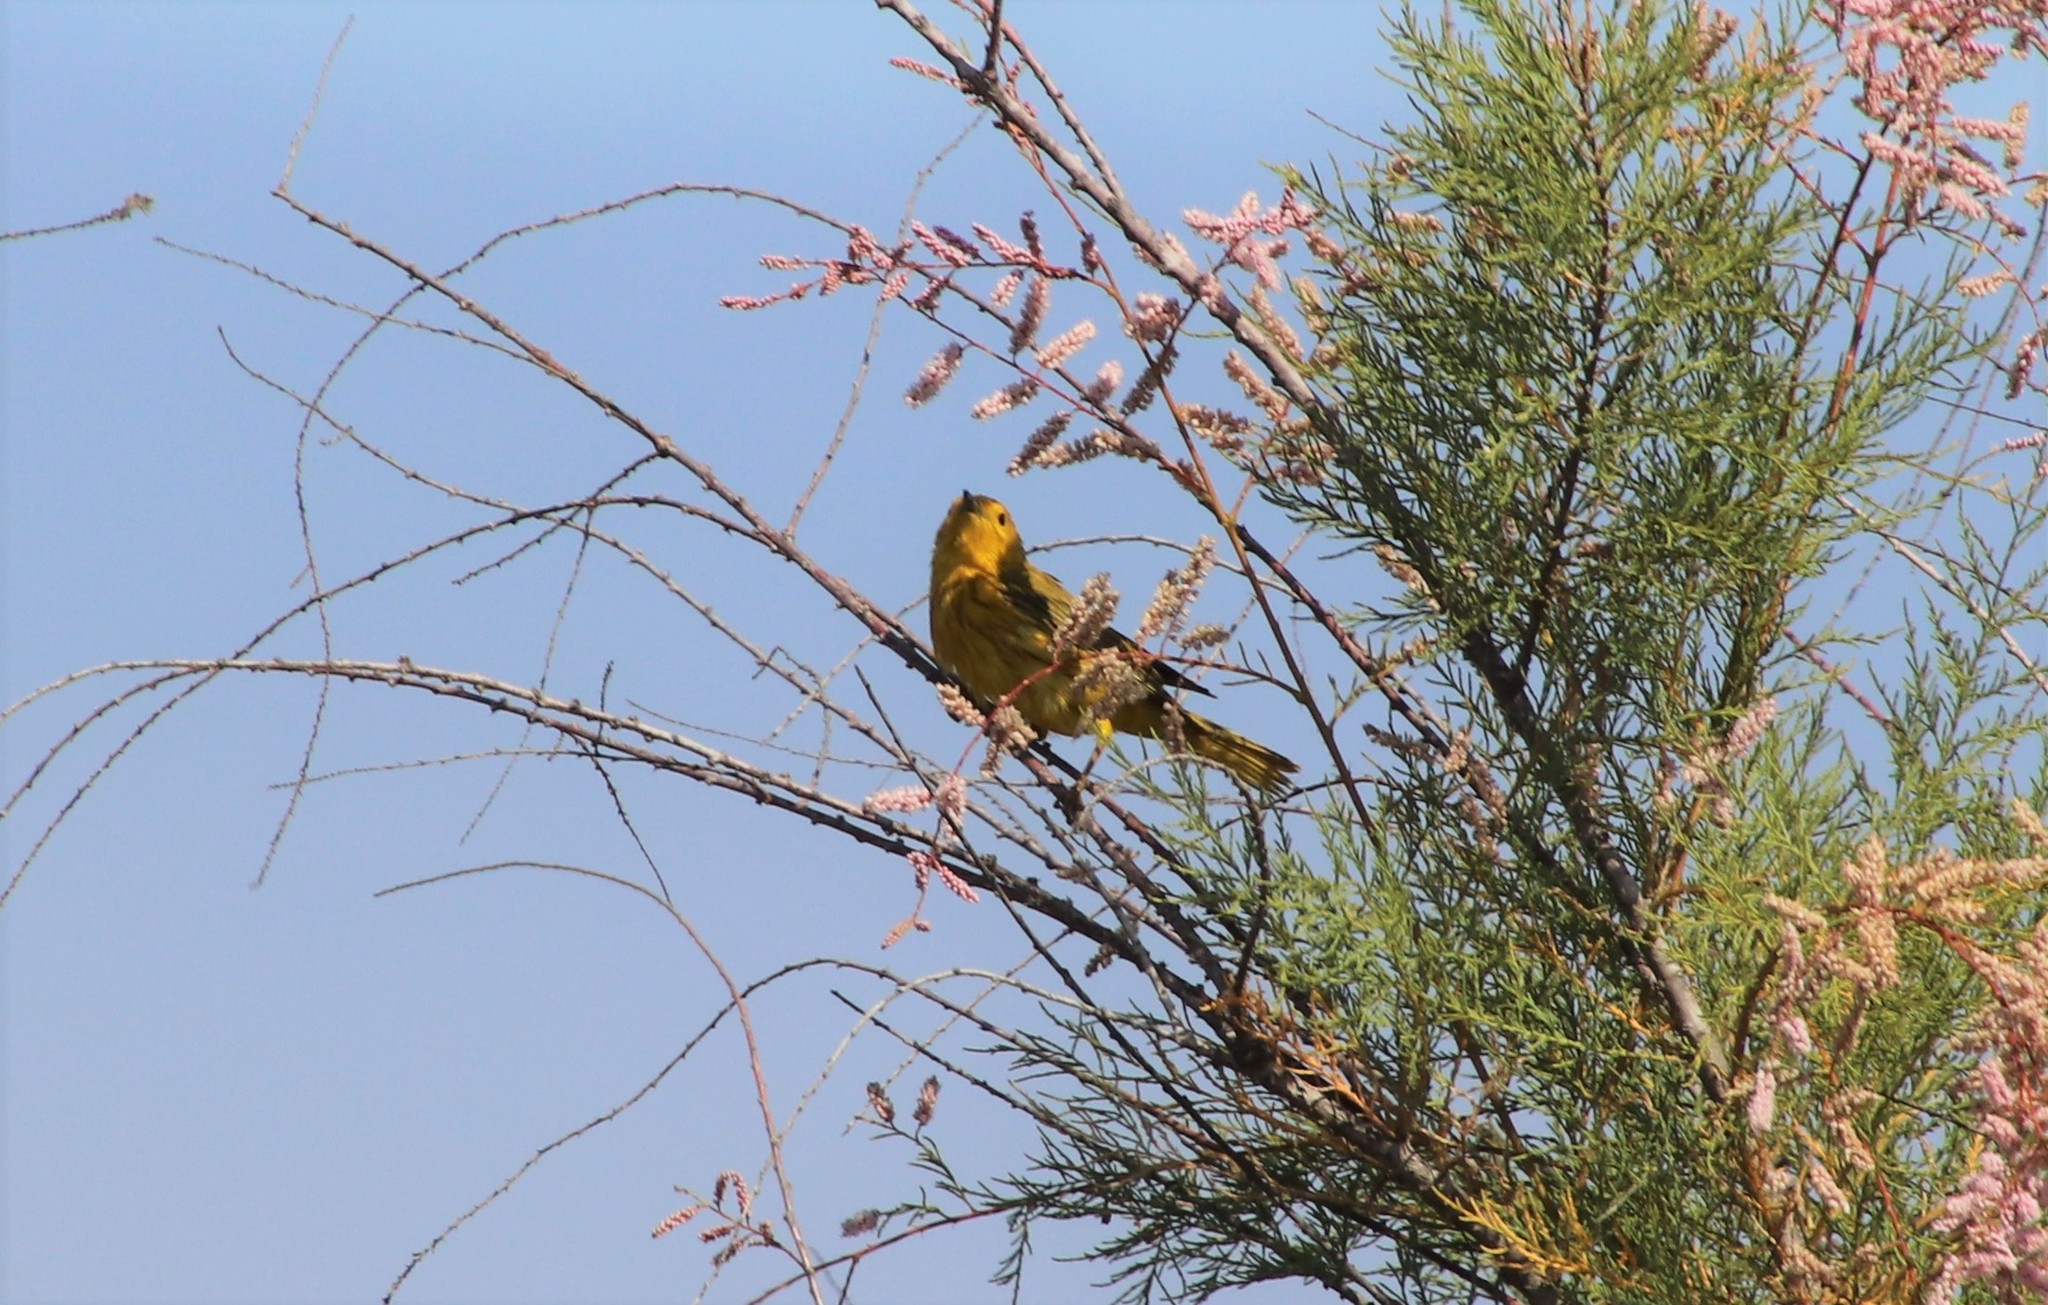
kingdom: Animalia
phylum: Chordata
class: Aves
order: Passeriformes
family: Parulidae
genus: Setophaga
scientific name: Setophaga petechia
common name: Yellow warbler
